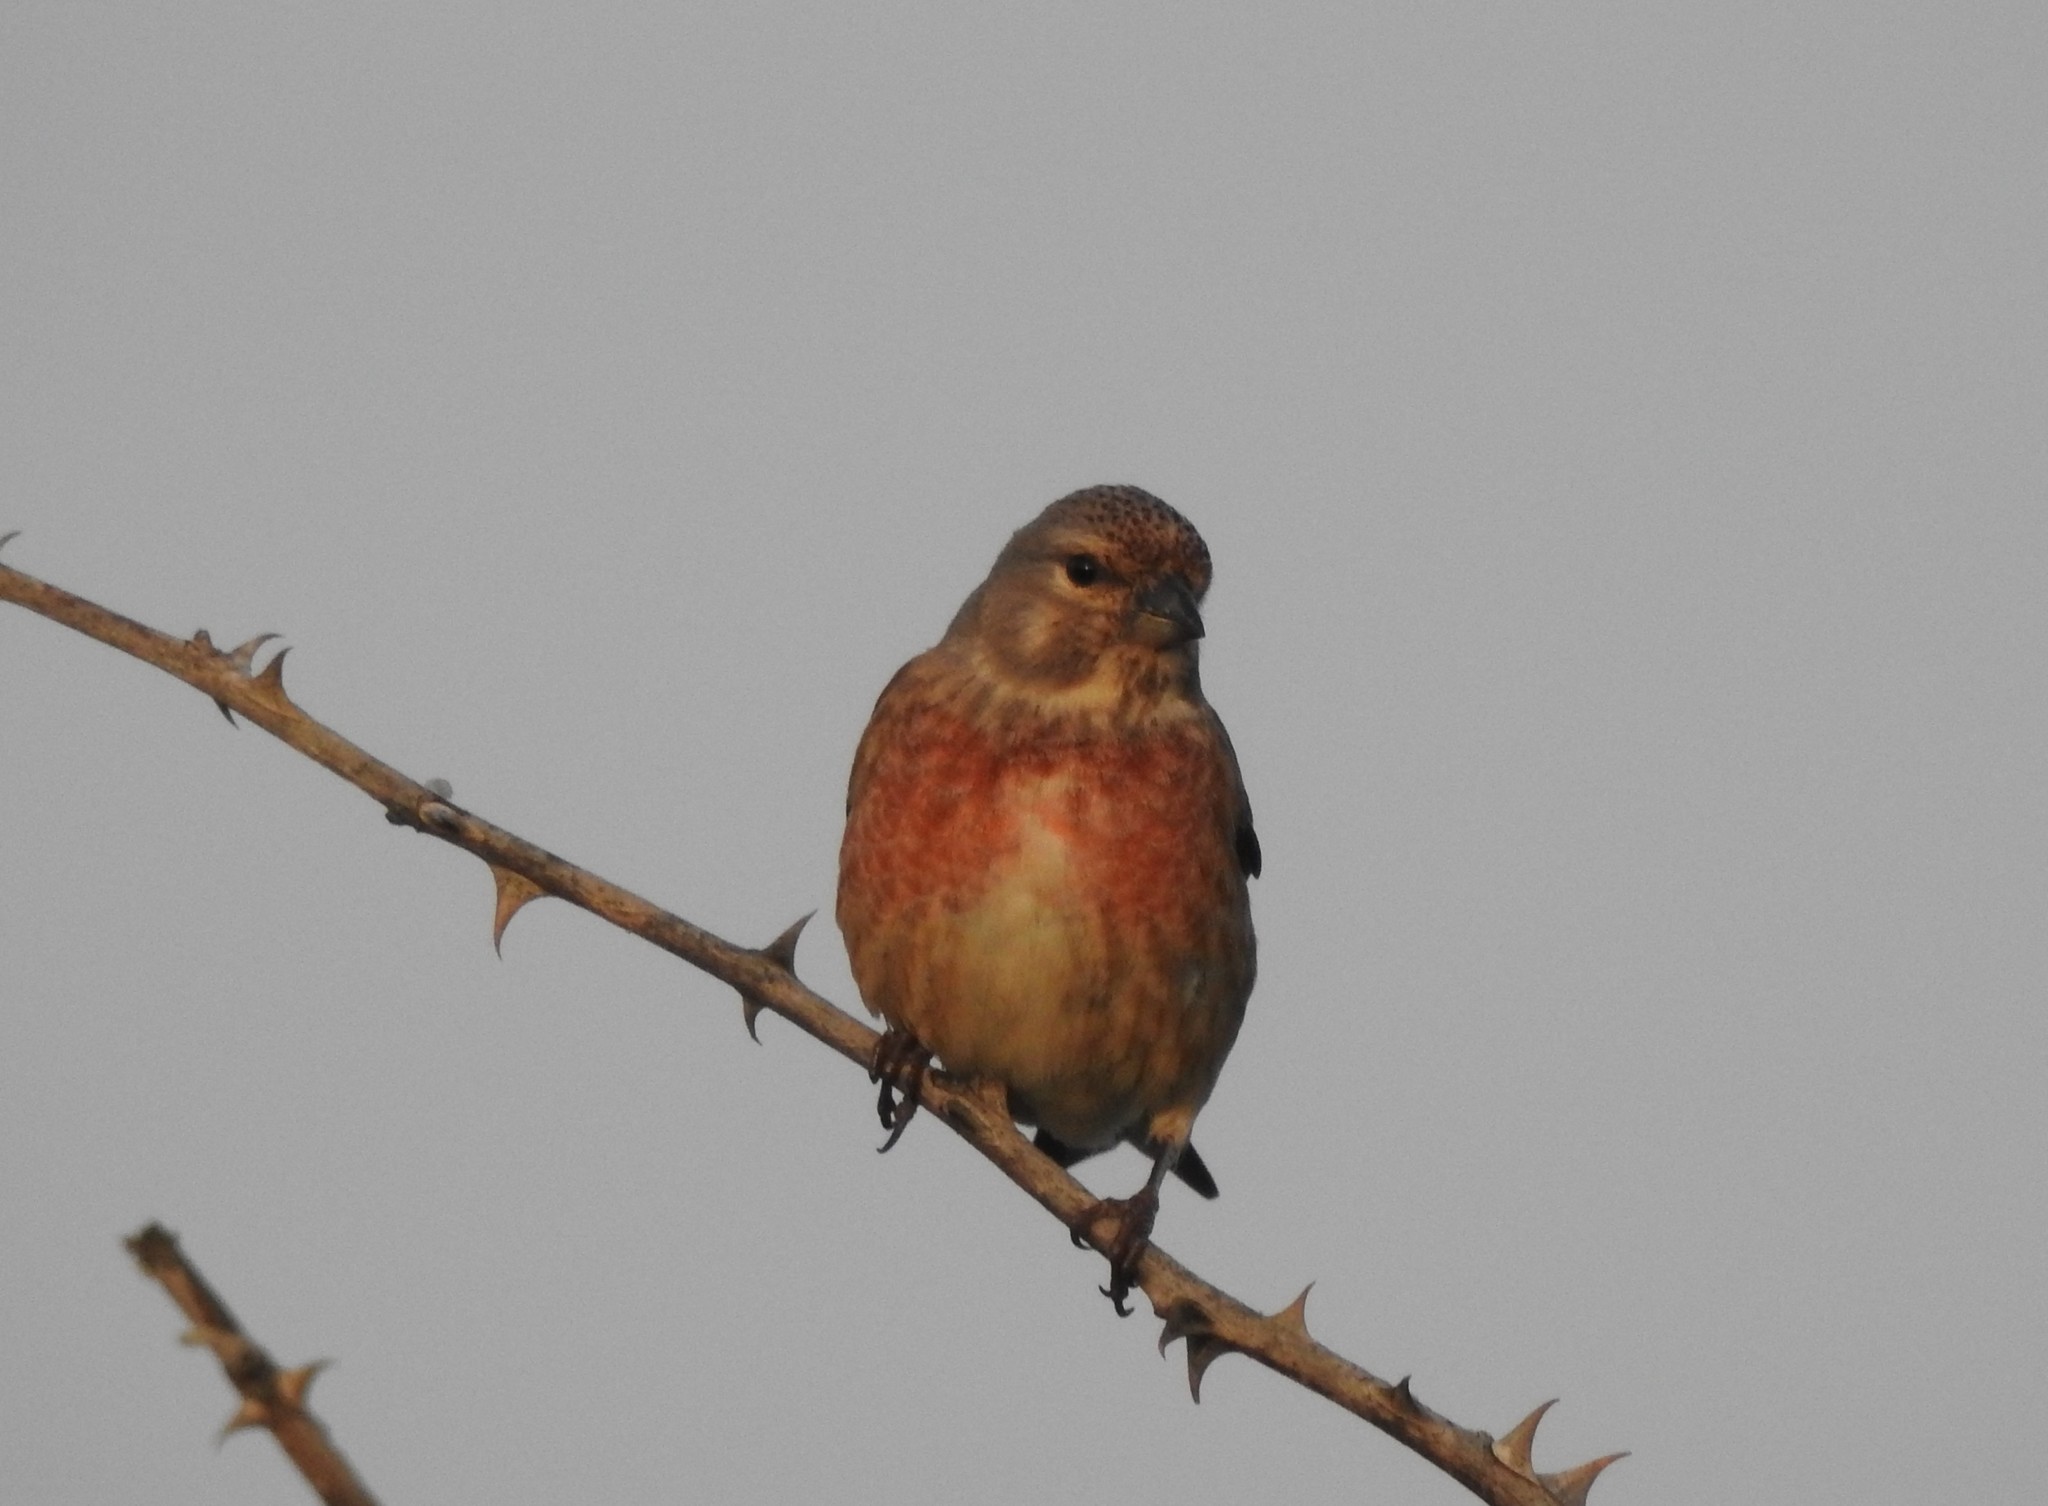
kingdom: Animalia
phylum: Chordata
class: Aves
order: Passeriformes
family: Fringillidae
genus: Linaria
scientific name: Linaria cannabina
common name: Common linnet
